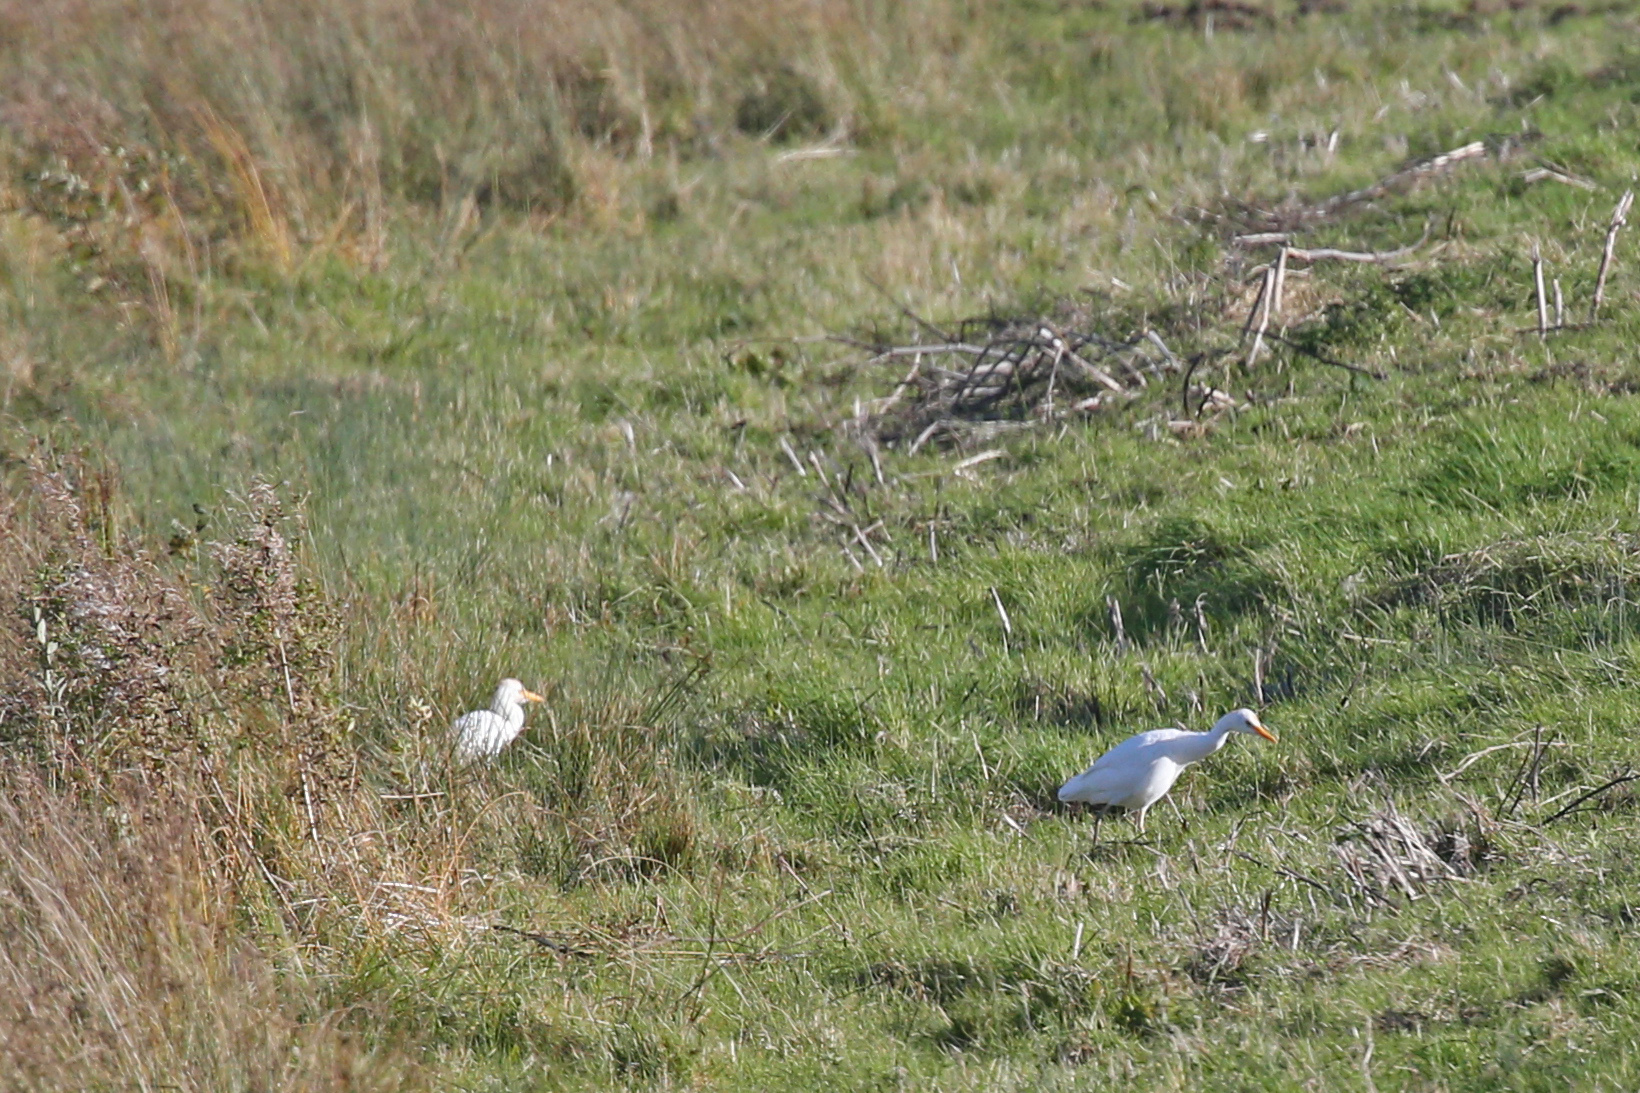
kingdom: Animalia
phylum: Chordata
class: Aves
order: Pelecaniformes
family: Ardeidae
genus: Bubulcus
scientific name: Bubulcus ibis
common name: Cattle egret
